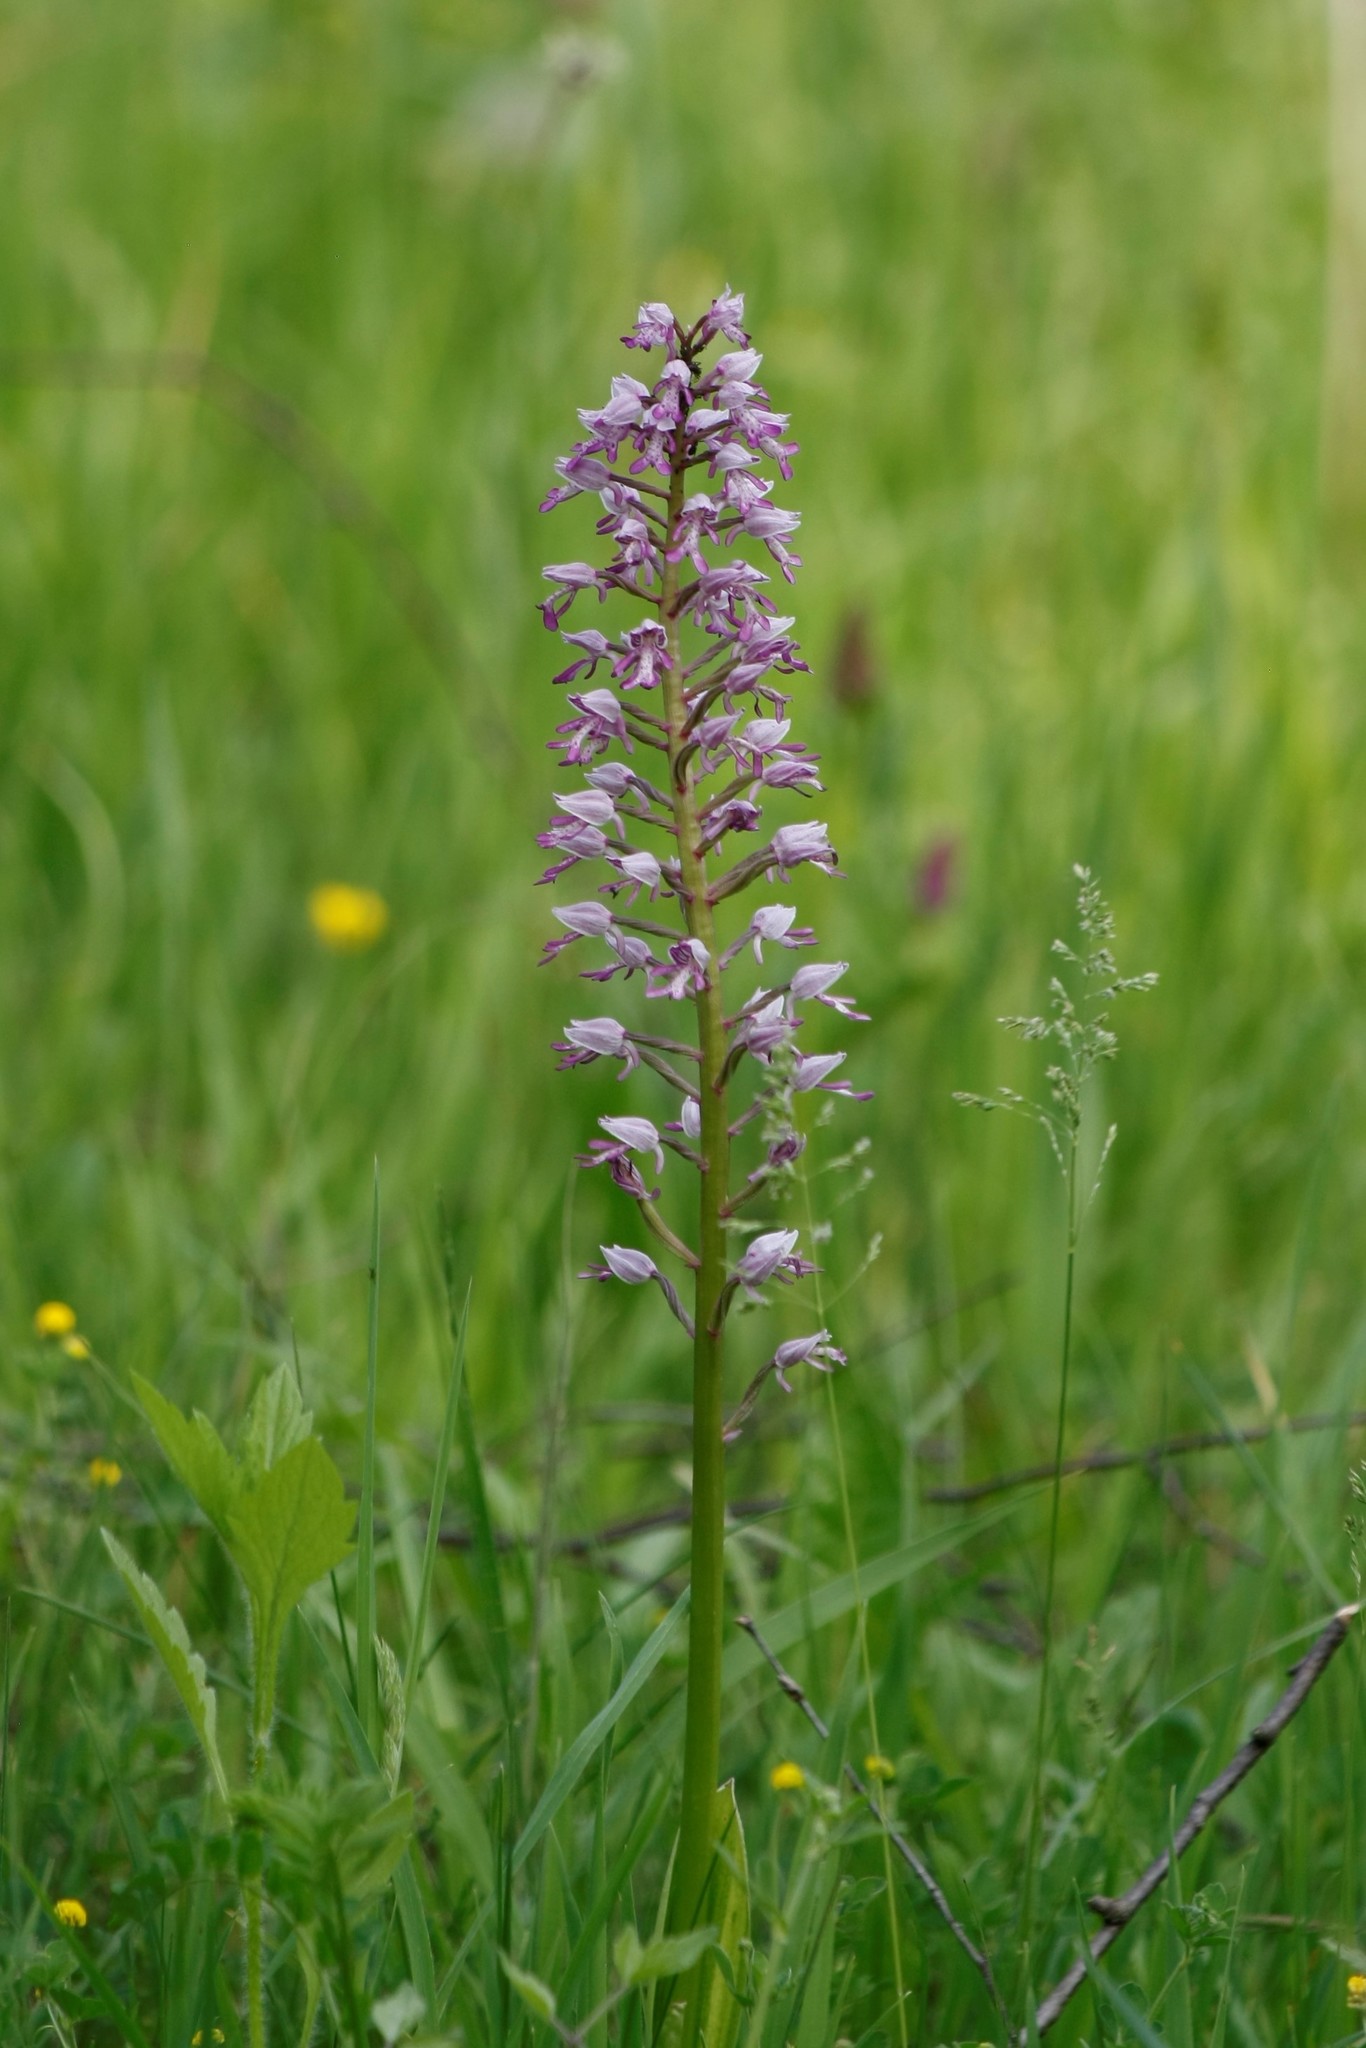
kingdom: Plantae
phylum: Tracheophyta
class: Liliopsida
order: Asparagales
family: Orchidaceae
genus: Orchis
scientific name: Orchis militaris
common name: Military orchid
